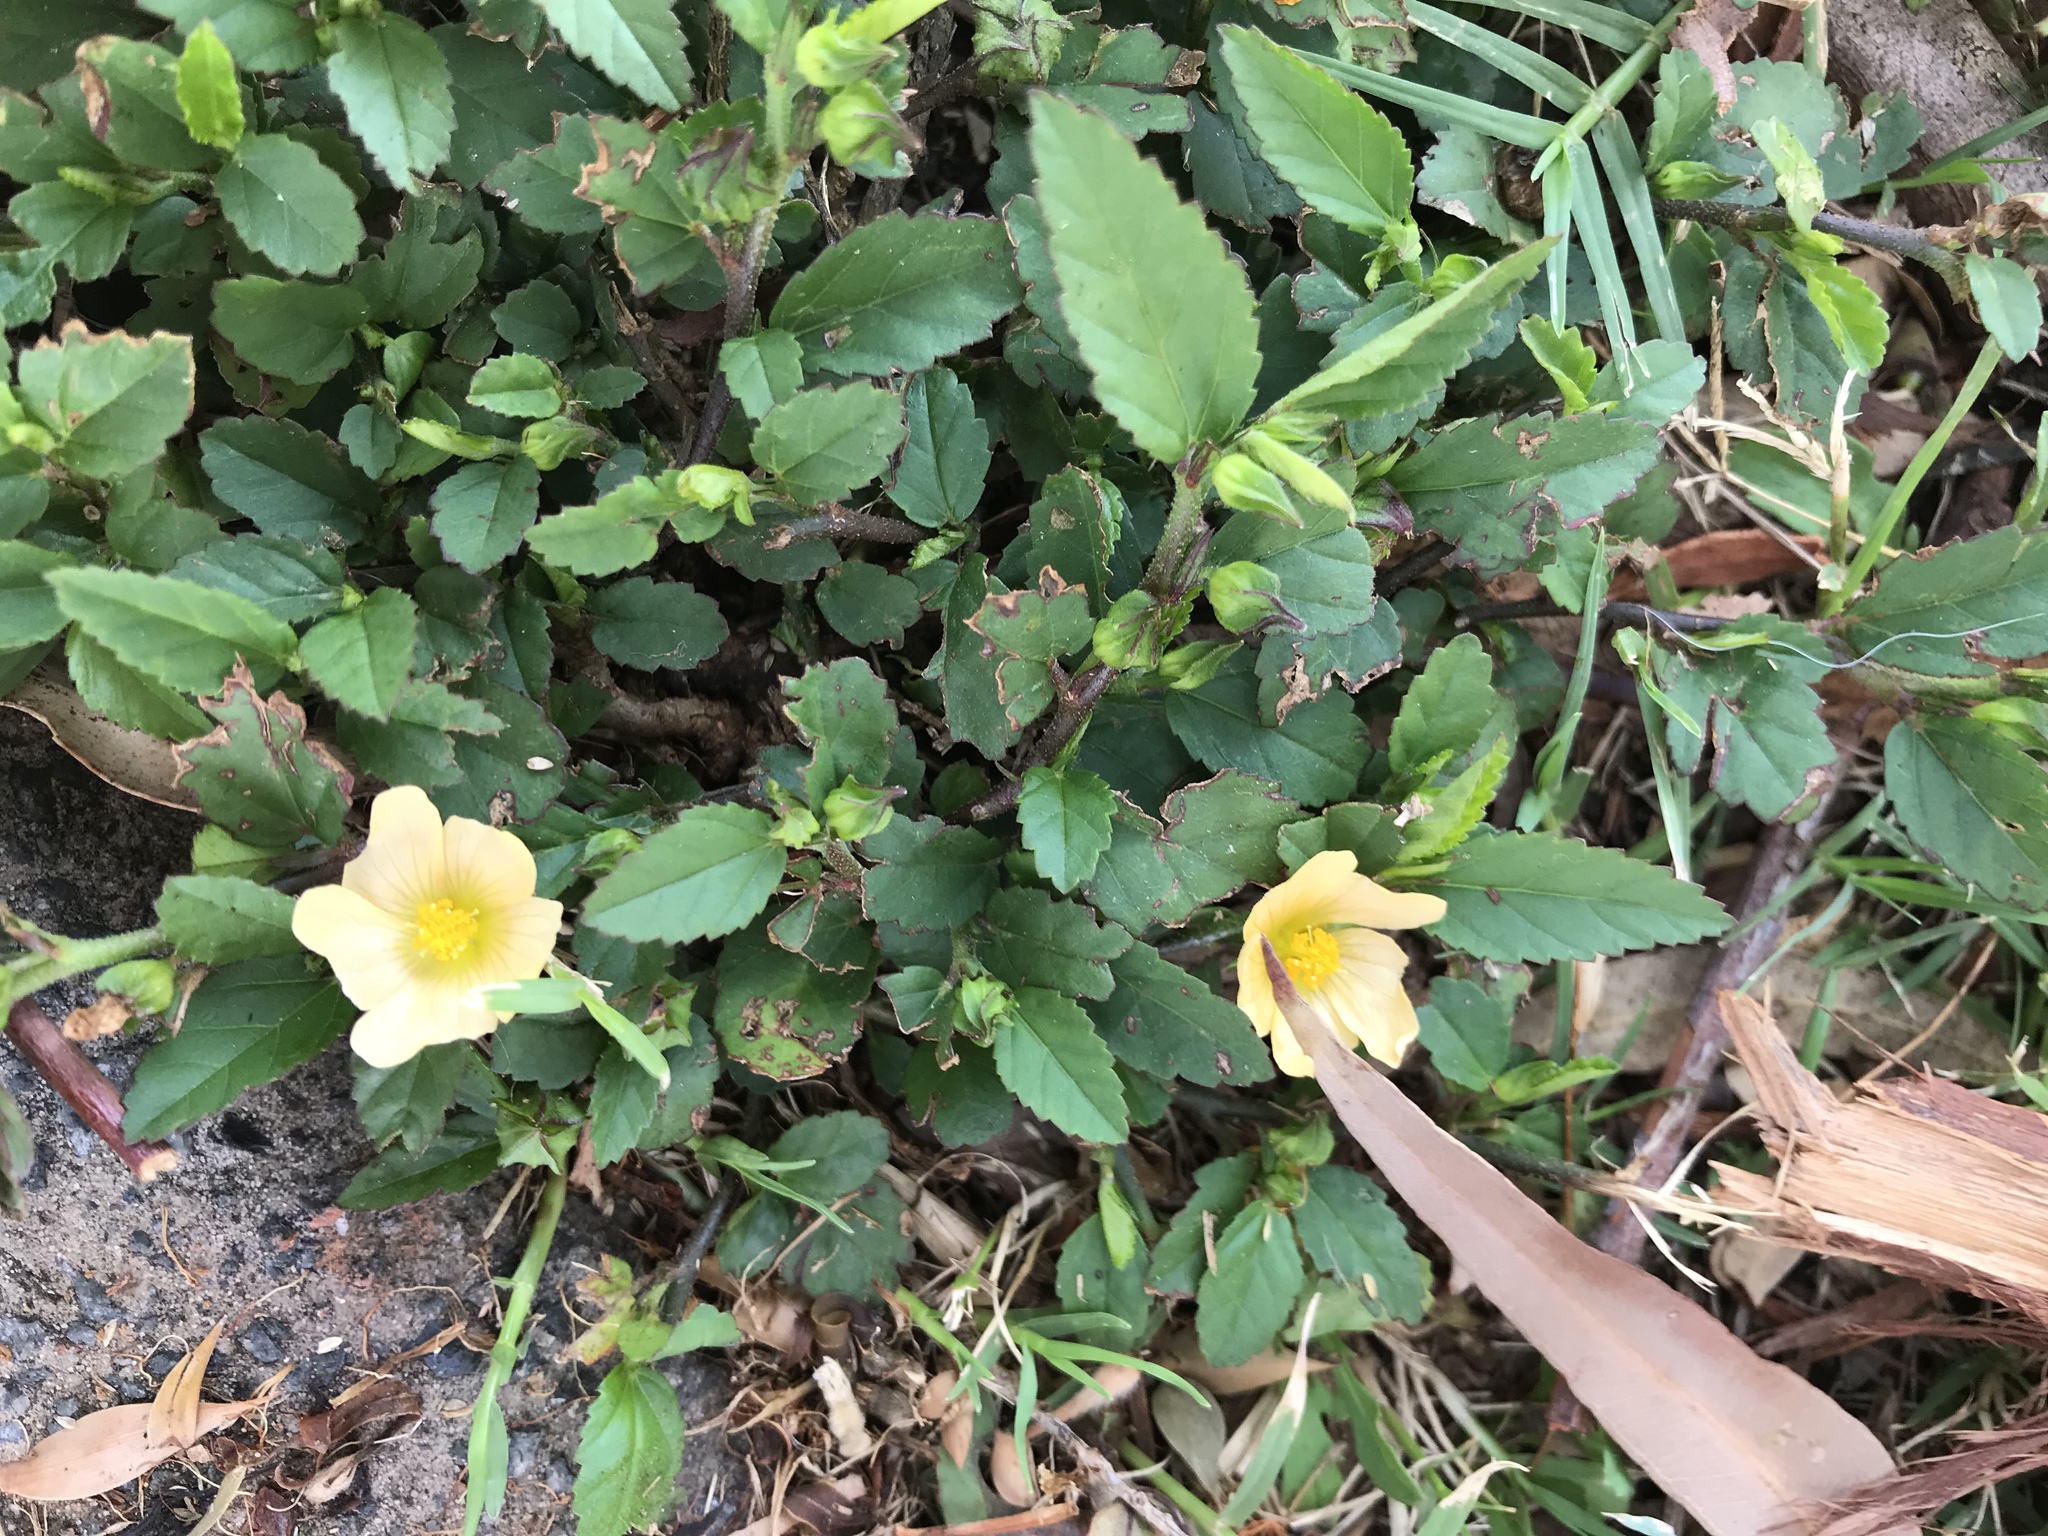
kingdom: Plantae
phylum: Tracheophyta
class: Magnoliopsida
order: Malvales
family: Malvaceae
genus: Sida
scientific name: Sida acuta
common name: Common wireweed
